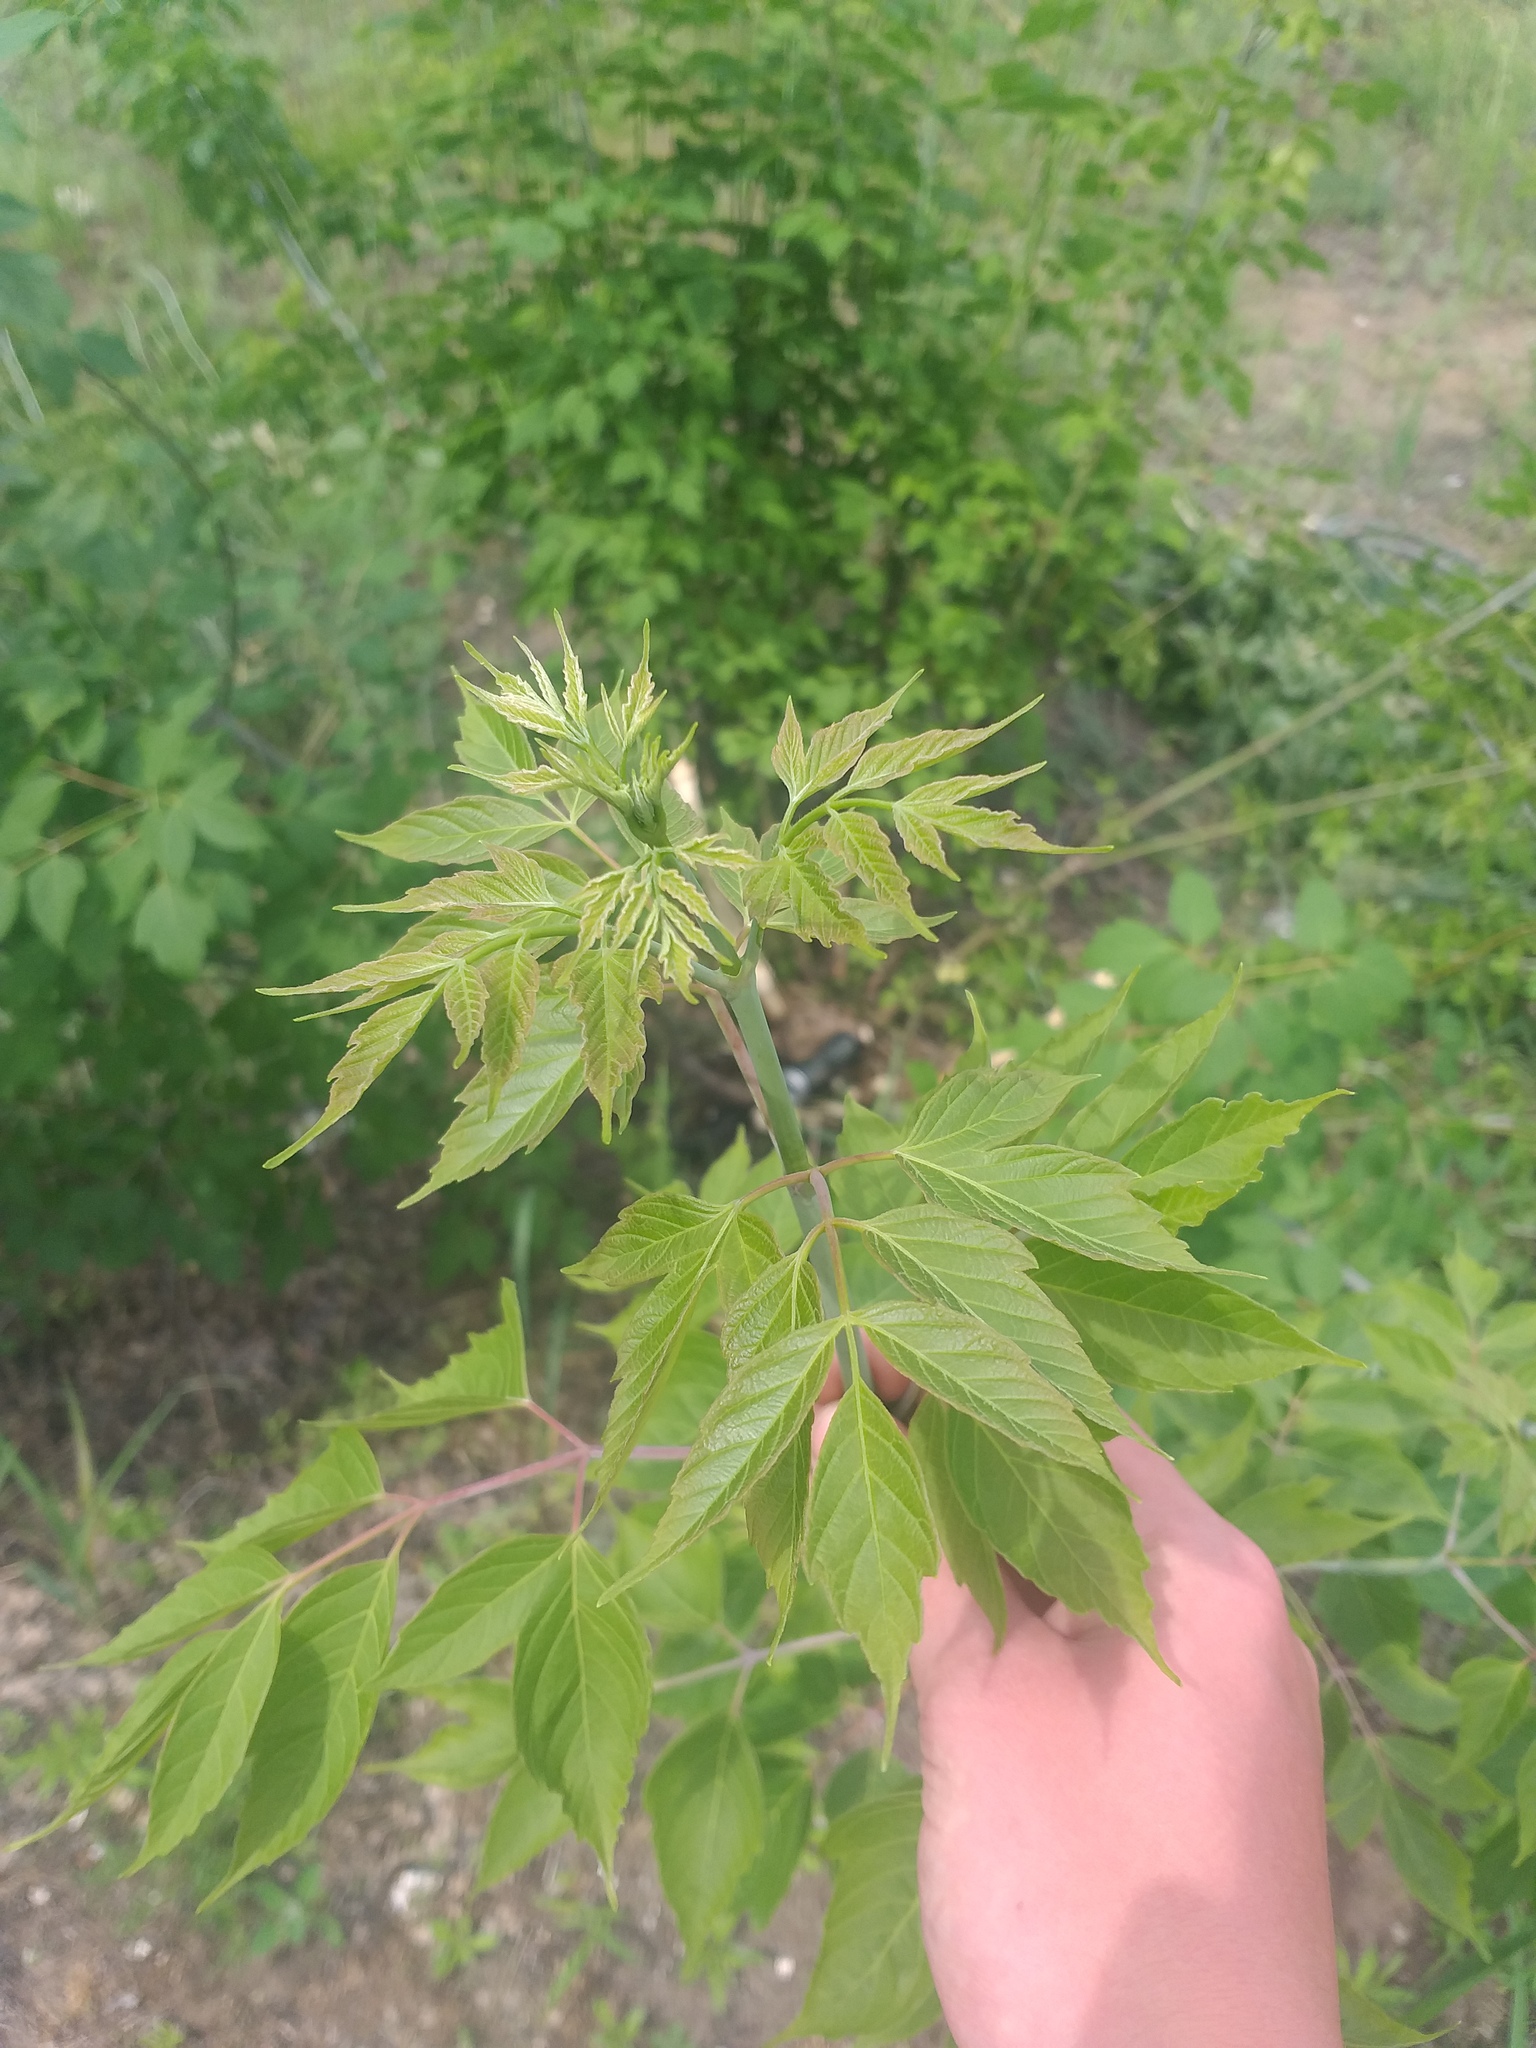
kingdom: Plantae
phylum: Tracheophyta
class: Magnoliopsida
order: Sapindales
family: Sapindaceae
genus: Acer
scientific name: Acer negundo
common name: Ashleaf maple
